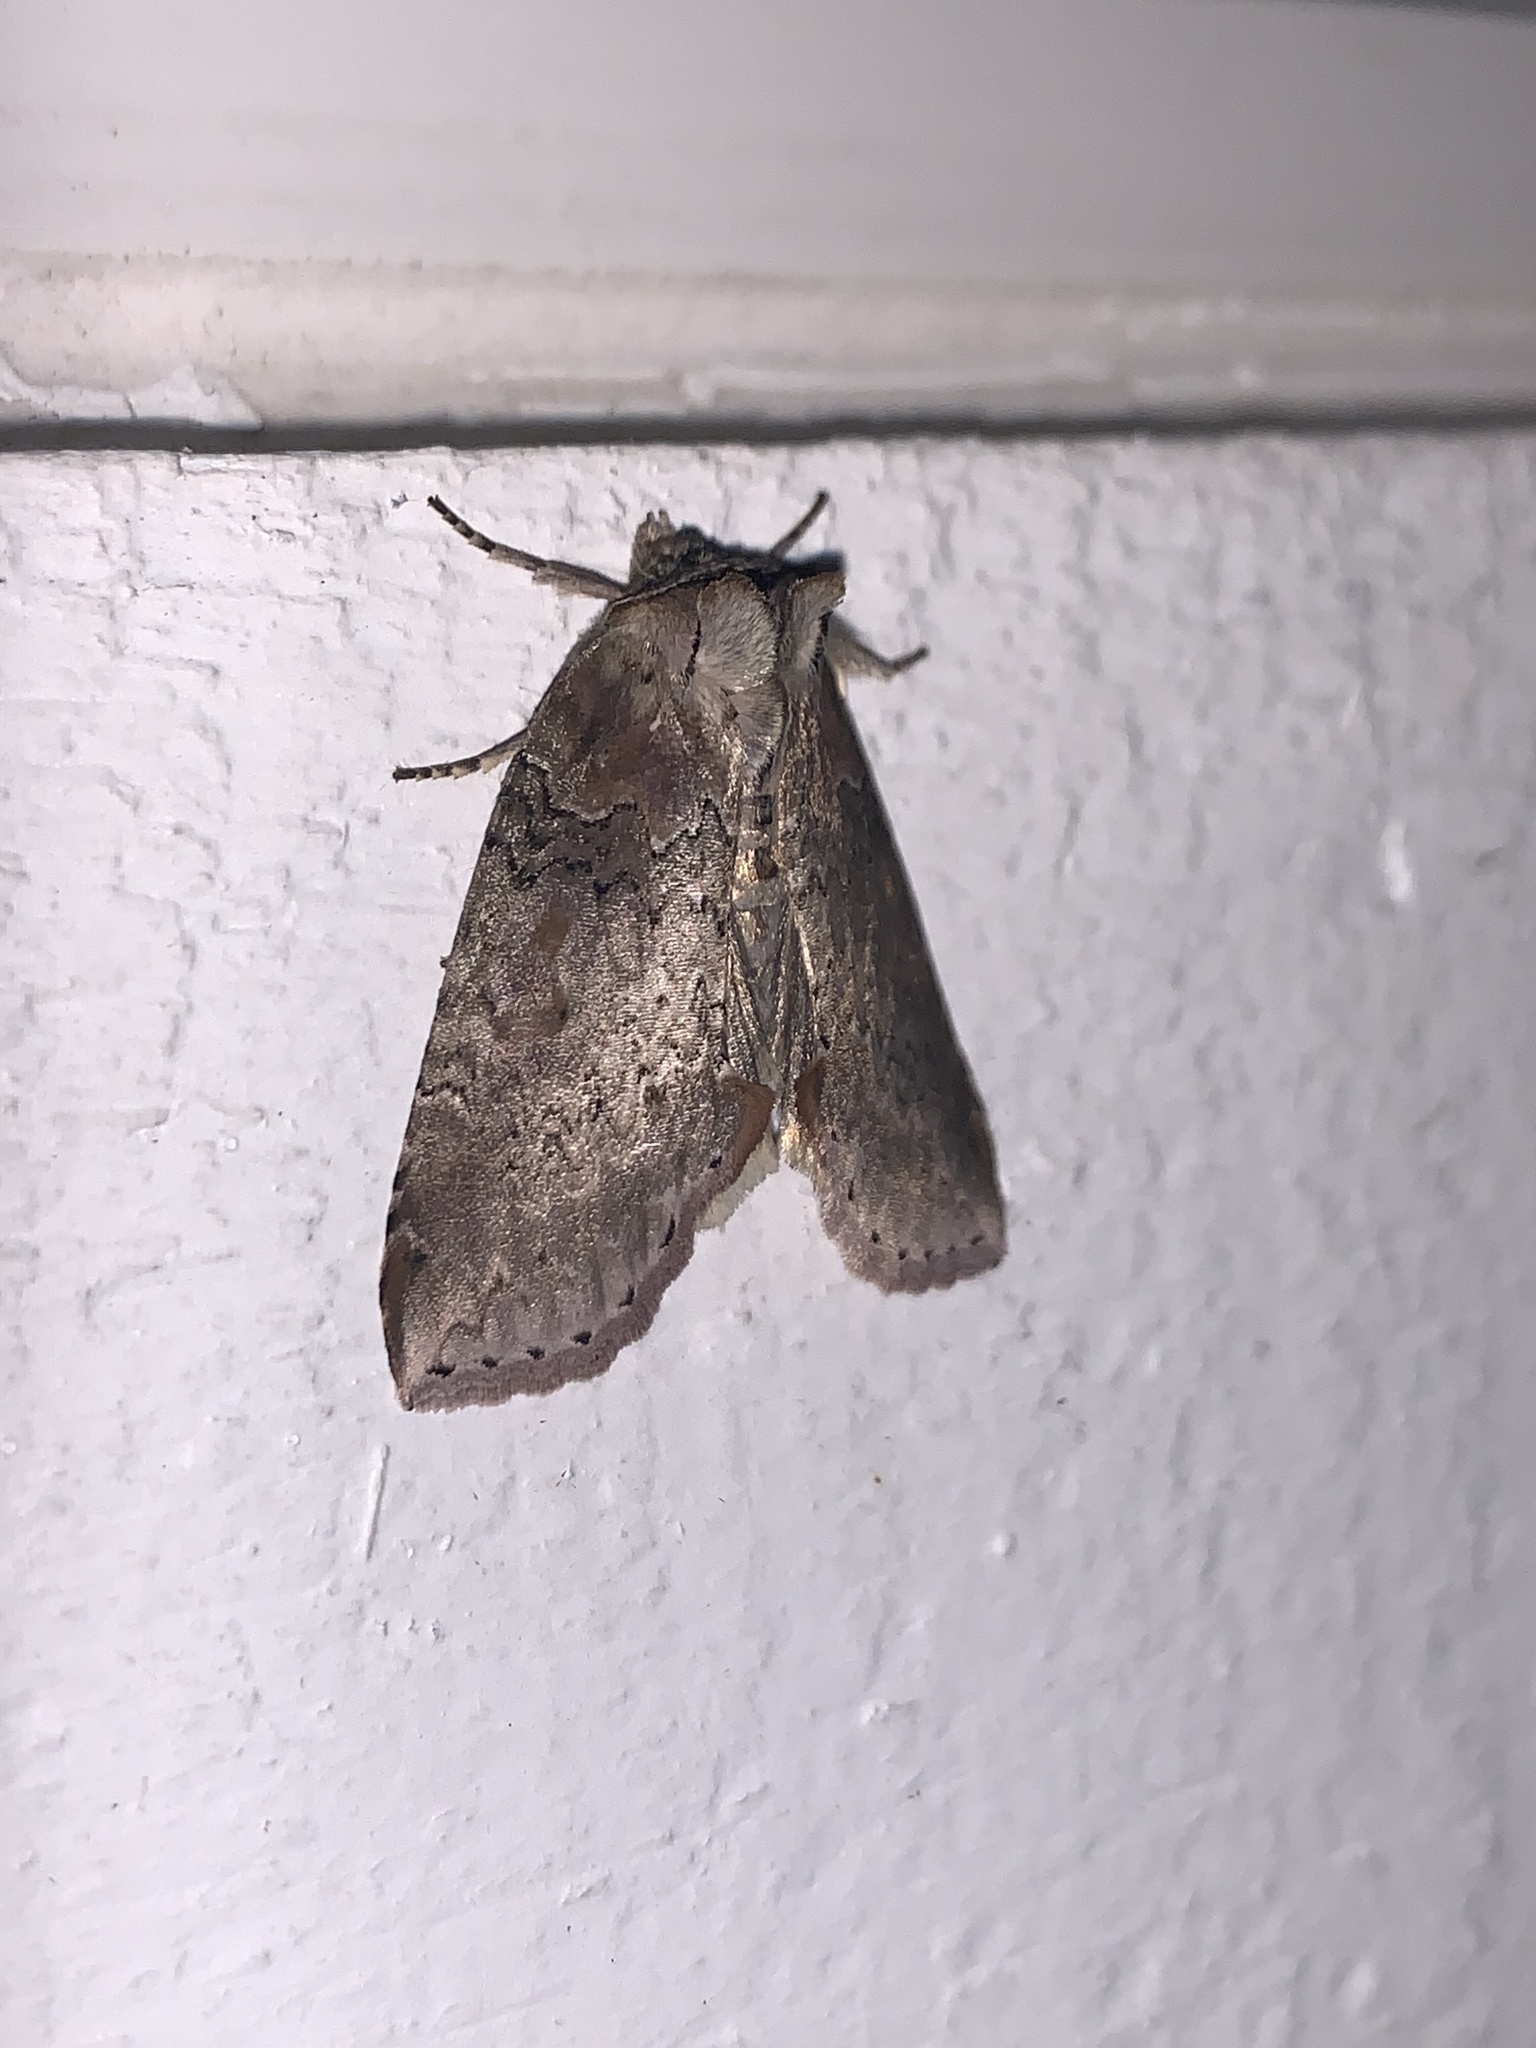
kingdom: Animalia
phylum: Arthropoda
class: Insecta
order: Lepidoptera
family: Drepanidae
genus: Pseudothyatira
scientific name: Pseudothyatira cymatophoroides
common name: Tufted thyatirid moth
